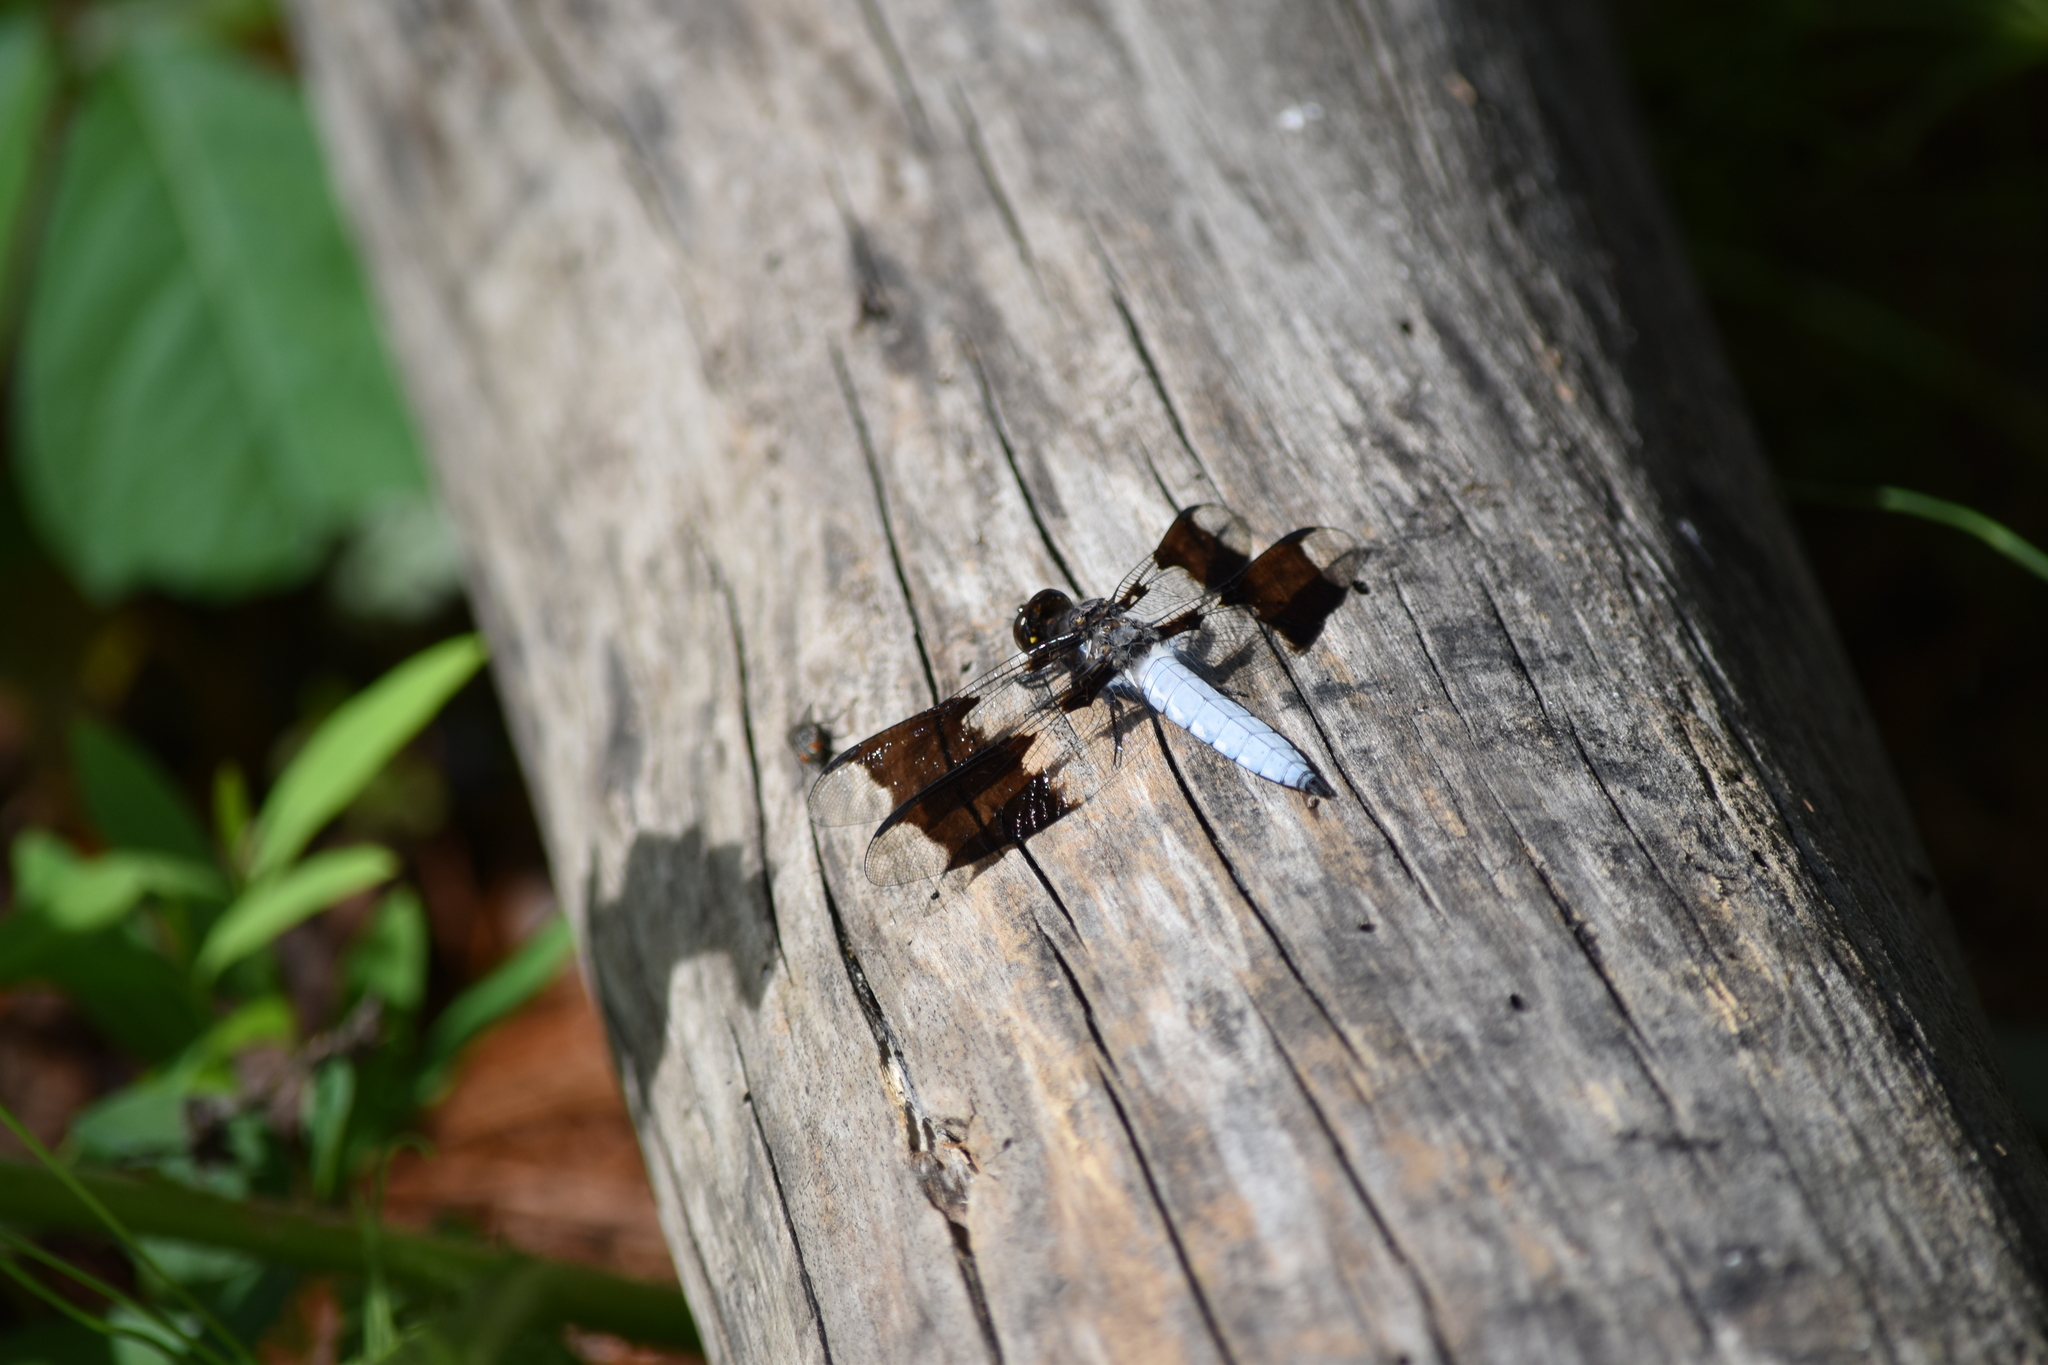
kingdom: Animalia
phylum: Arthropoda
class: Insecta
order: Odonata
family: Libellulidae
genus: Plathemis
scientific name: Plathemis lydia
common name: Common whitetail
